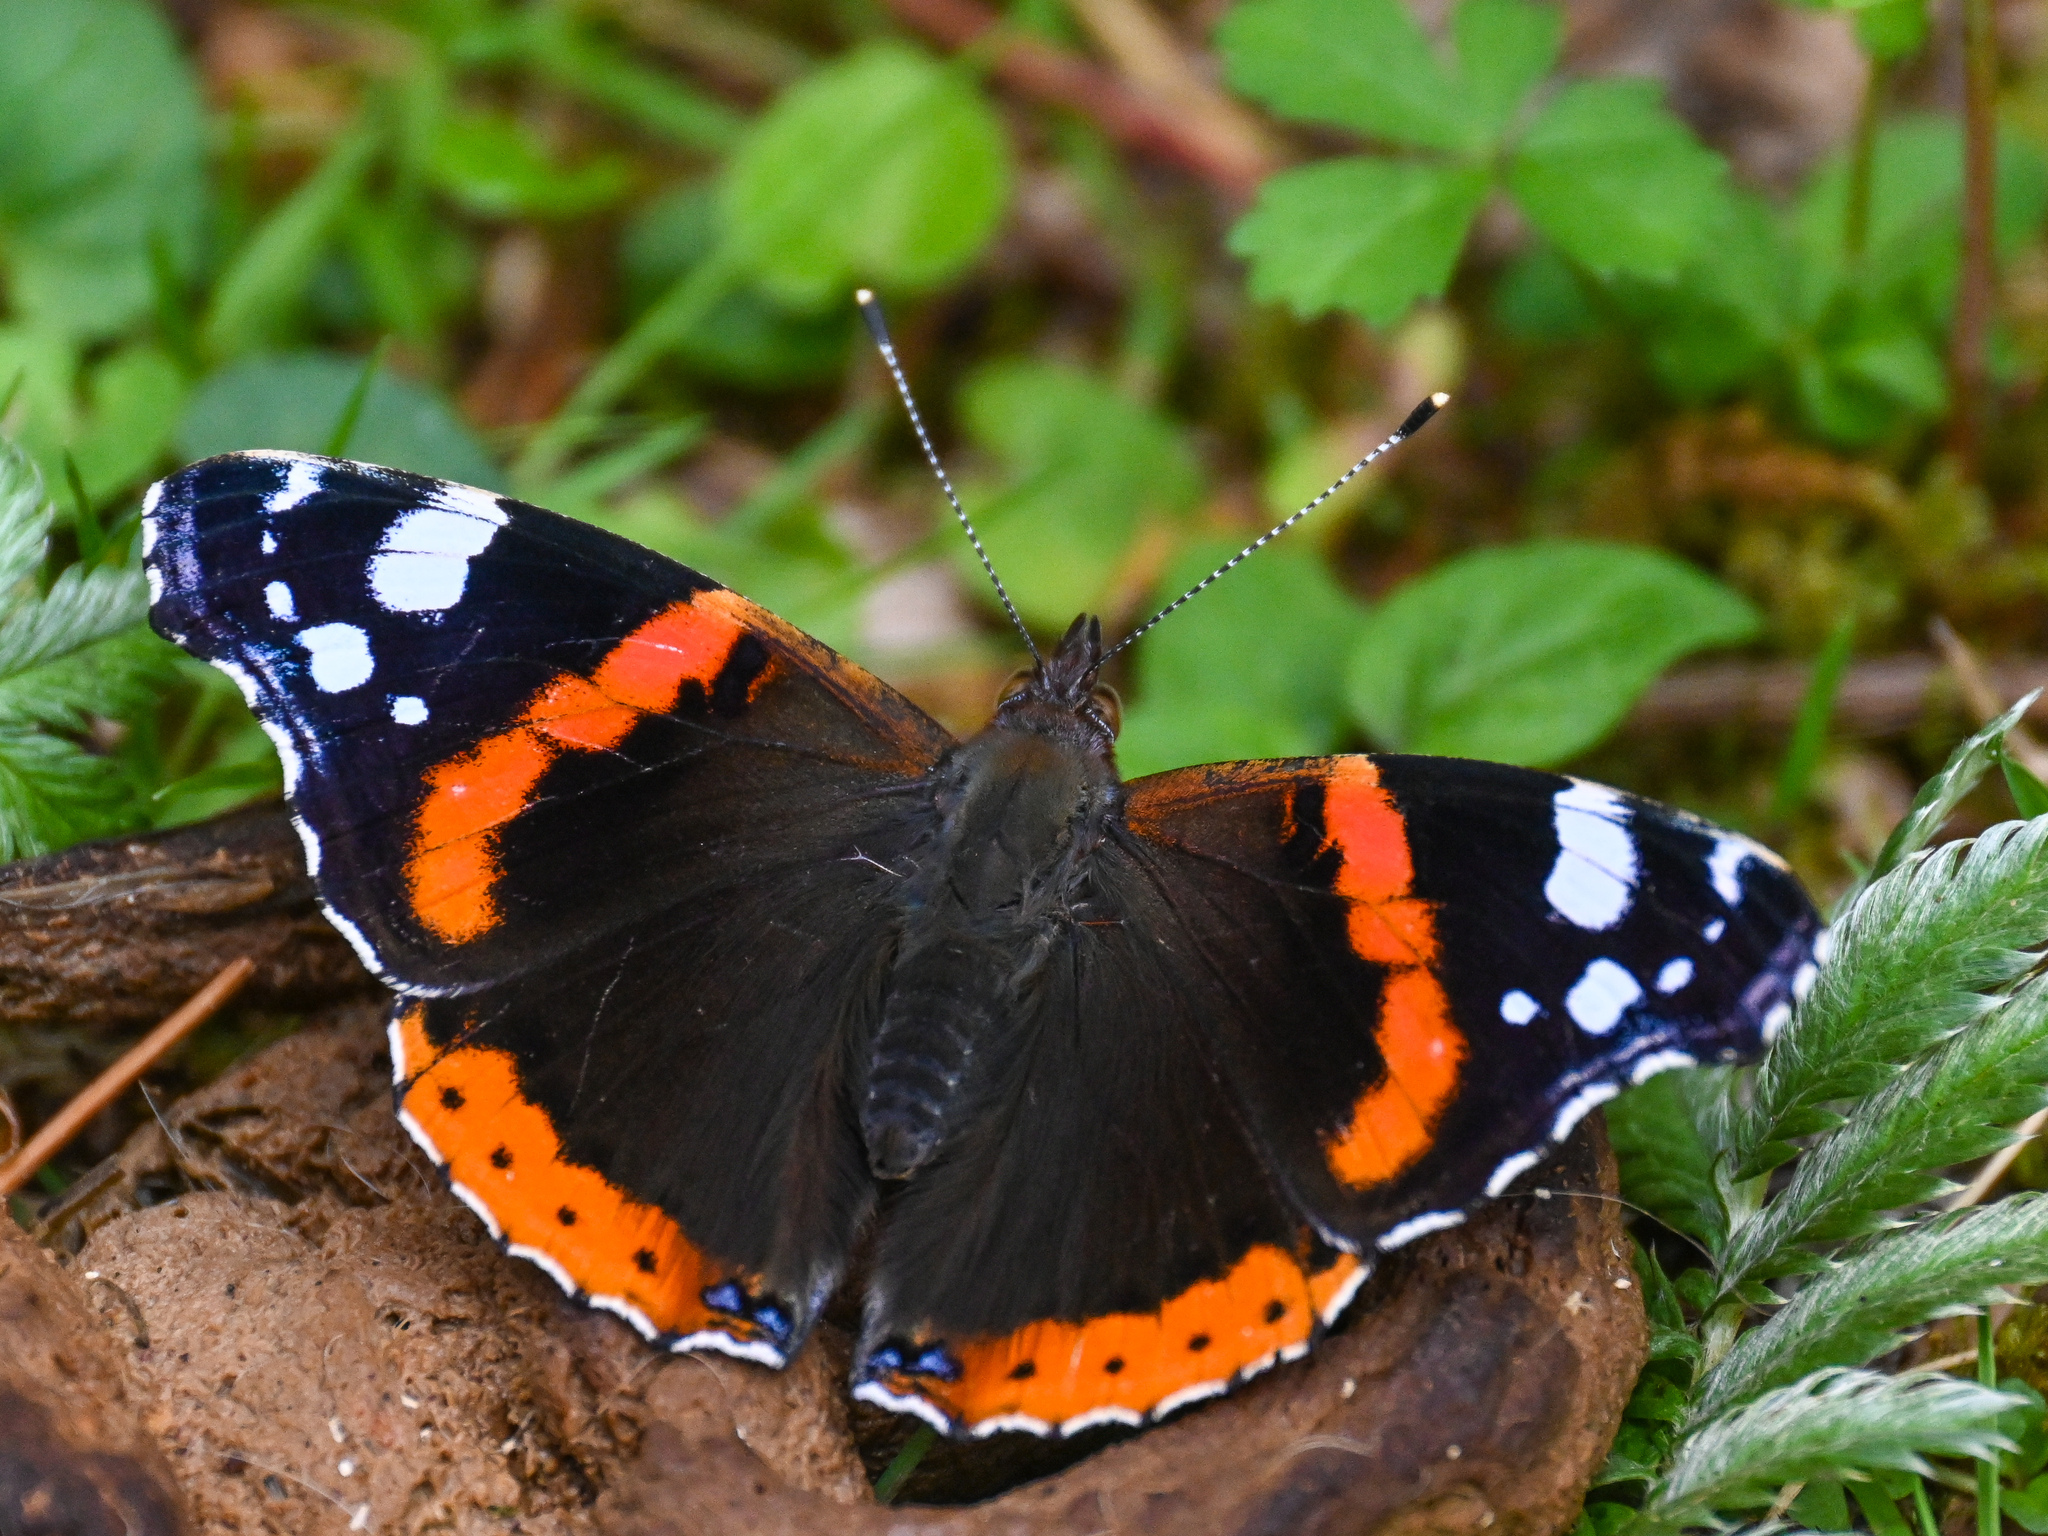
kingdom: Animalia
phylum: Arthropoda
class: Insecta
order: Lepidoptera
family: Nymphalidae
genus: Vanessa
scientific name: Vanessa atalanta
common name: Red admiral
